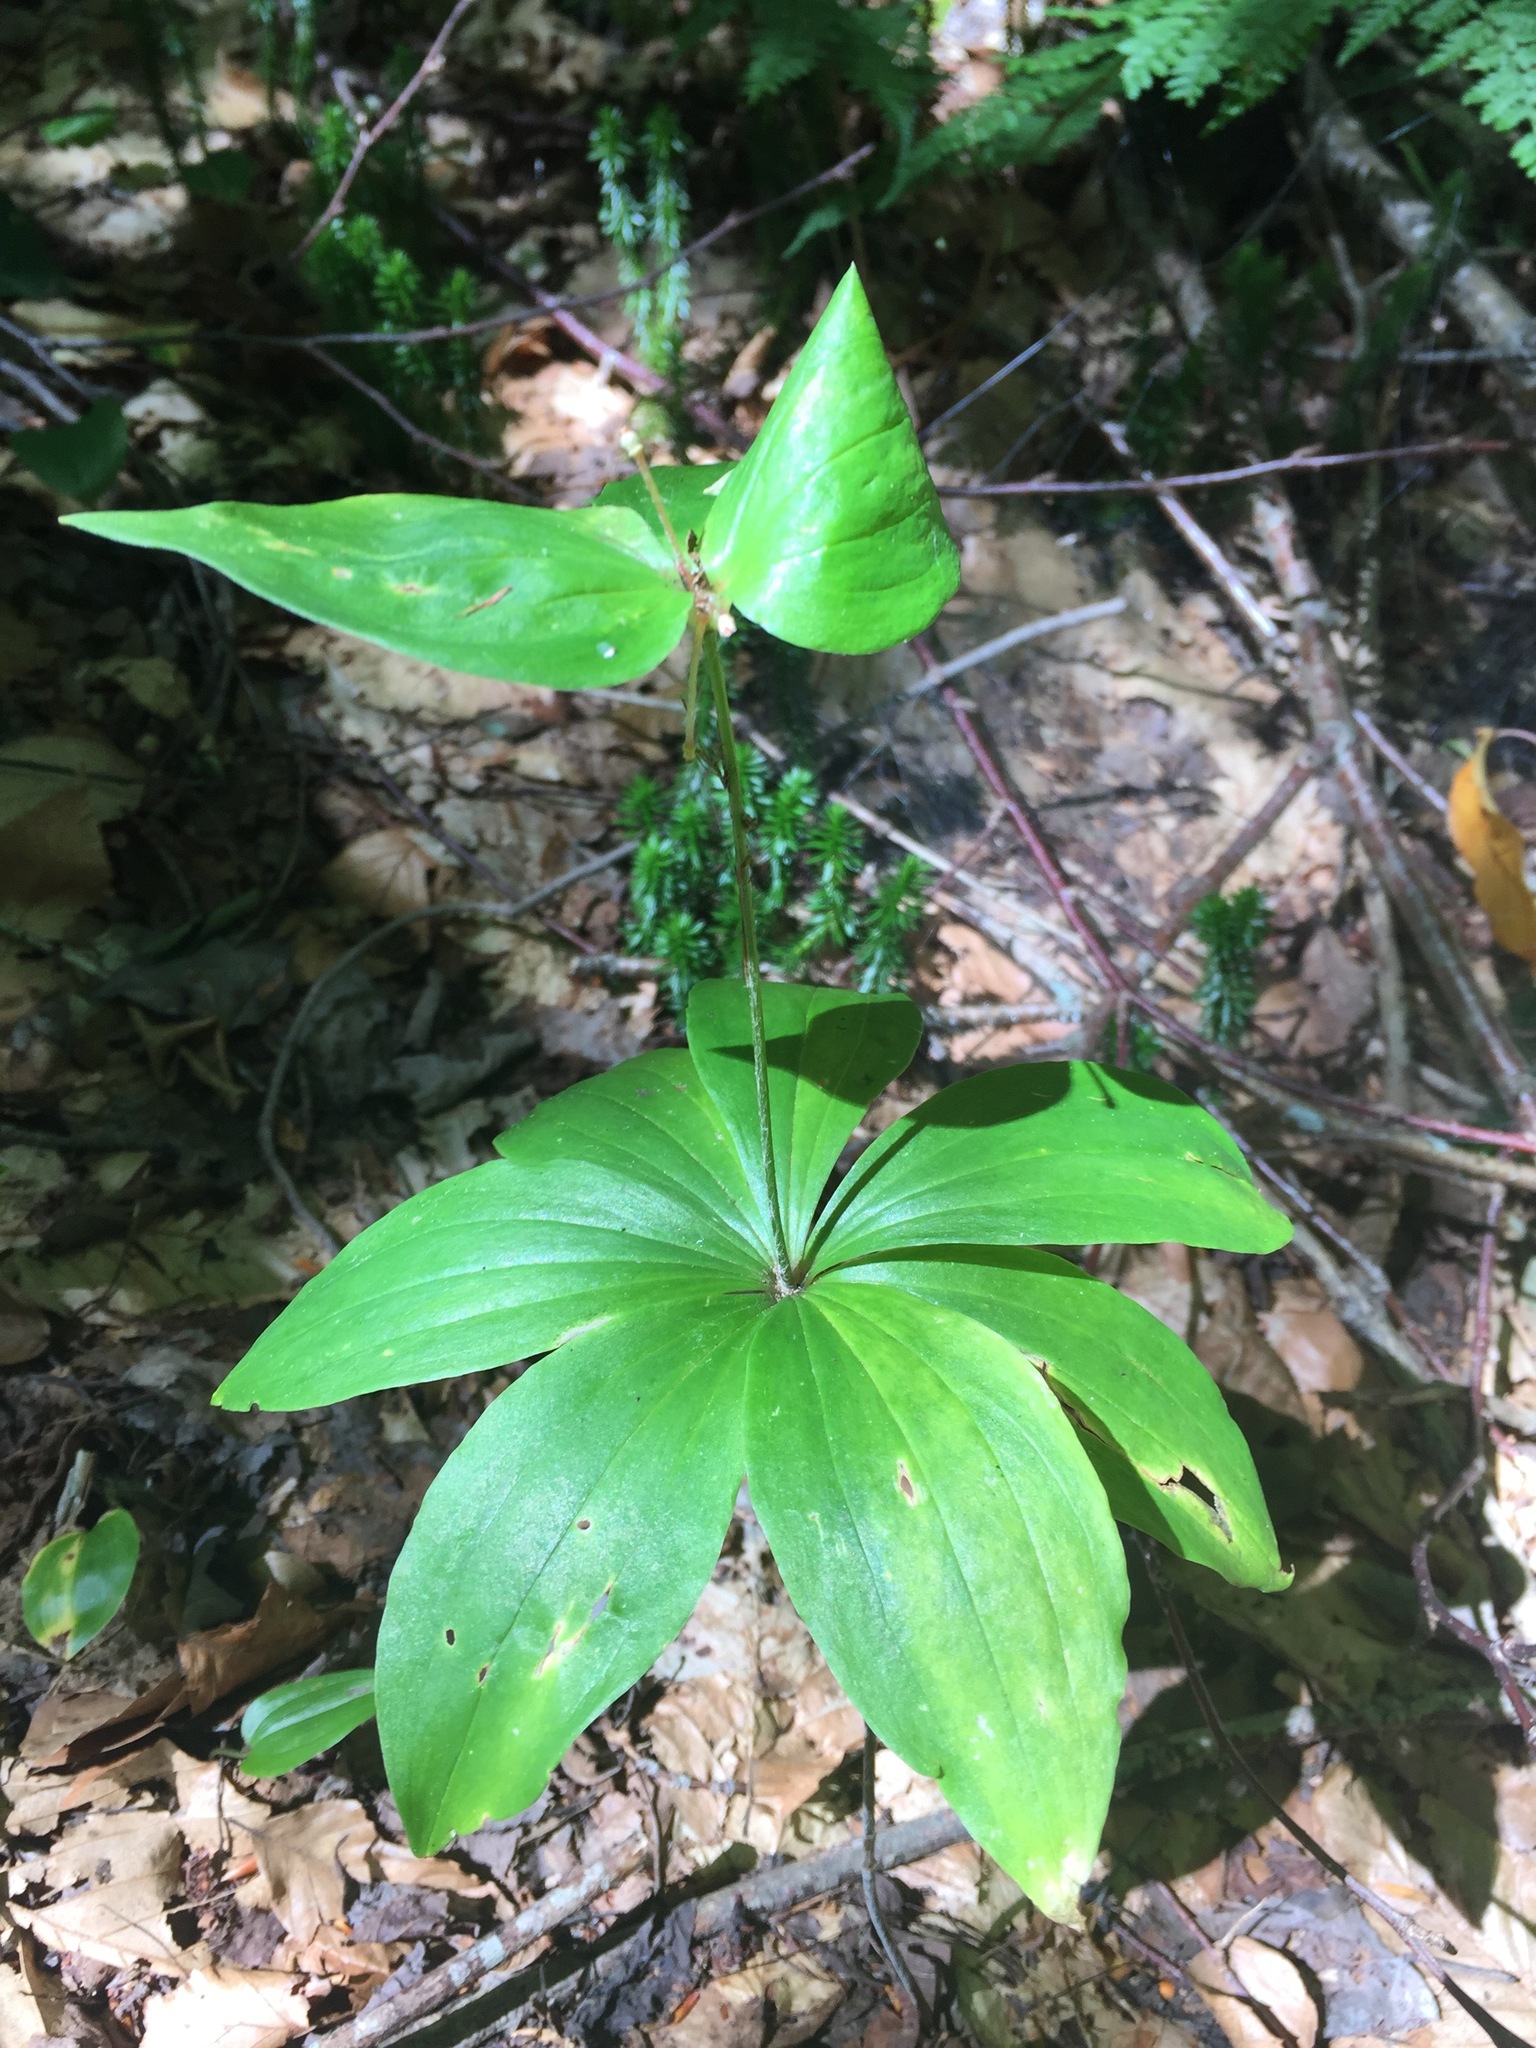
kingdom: Plantae
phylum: Tracheophyta
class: Liliopsida
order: Liliales
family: Liliaceae
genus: Medeola
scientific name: Medeola virginiana
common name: Indian cucumber-root
